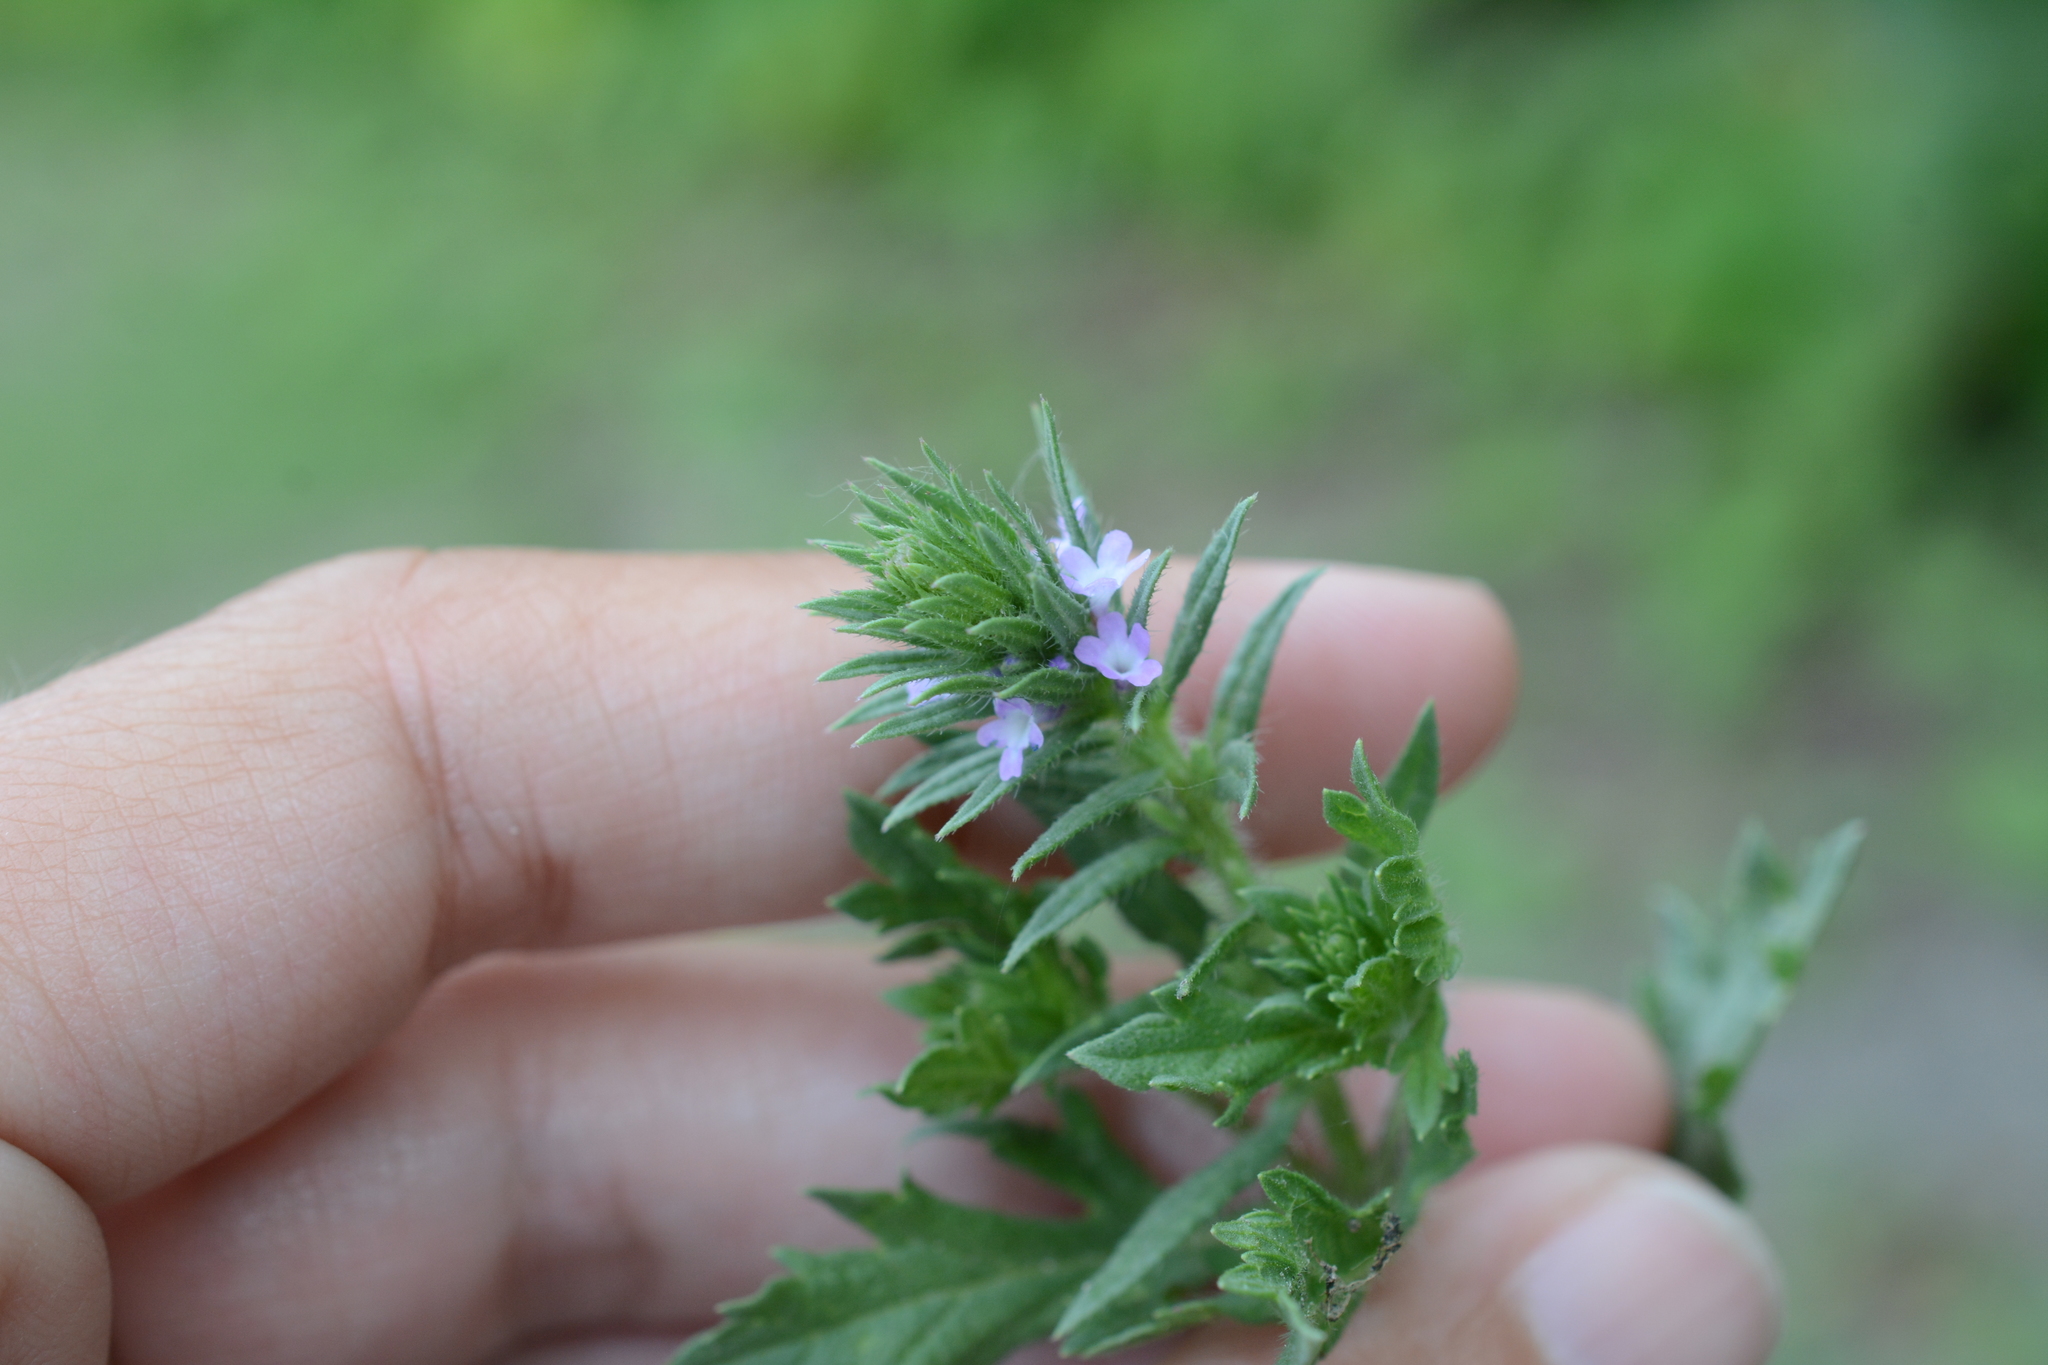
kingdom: Plantae
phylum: Tracheophyta
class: Magnoliopsida
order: Lamiales
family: Verbenaceae
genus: Verbena
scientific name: Verbena bracteata
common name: Bracted vervain
